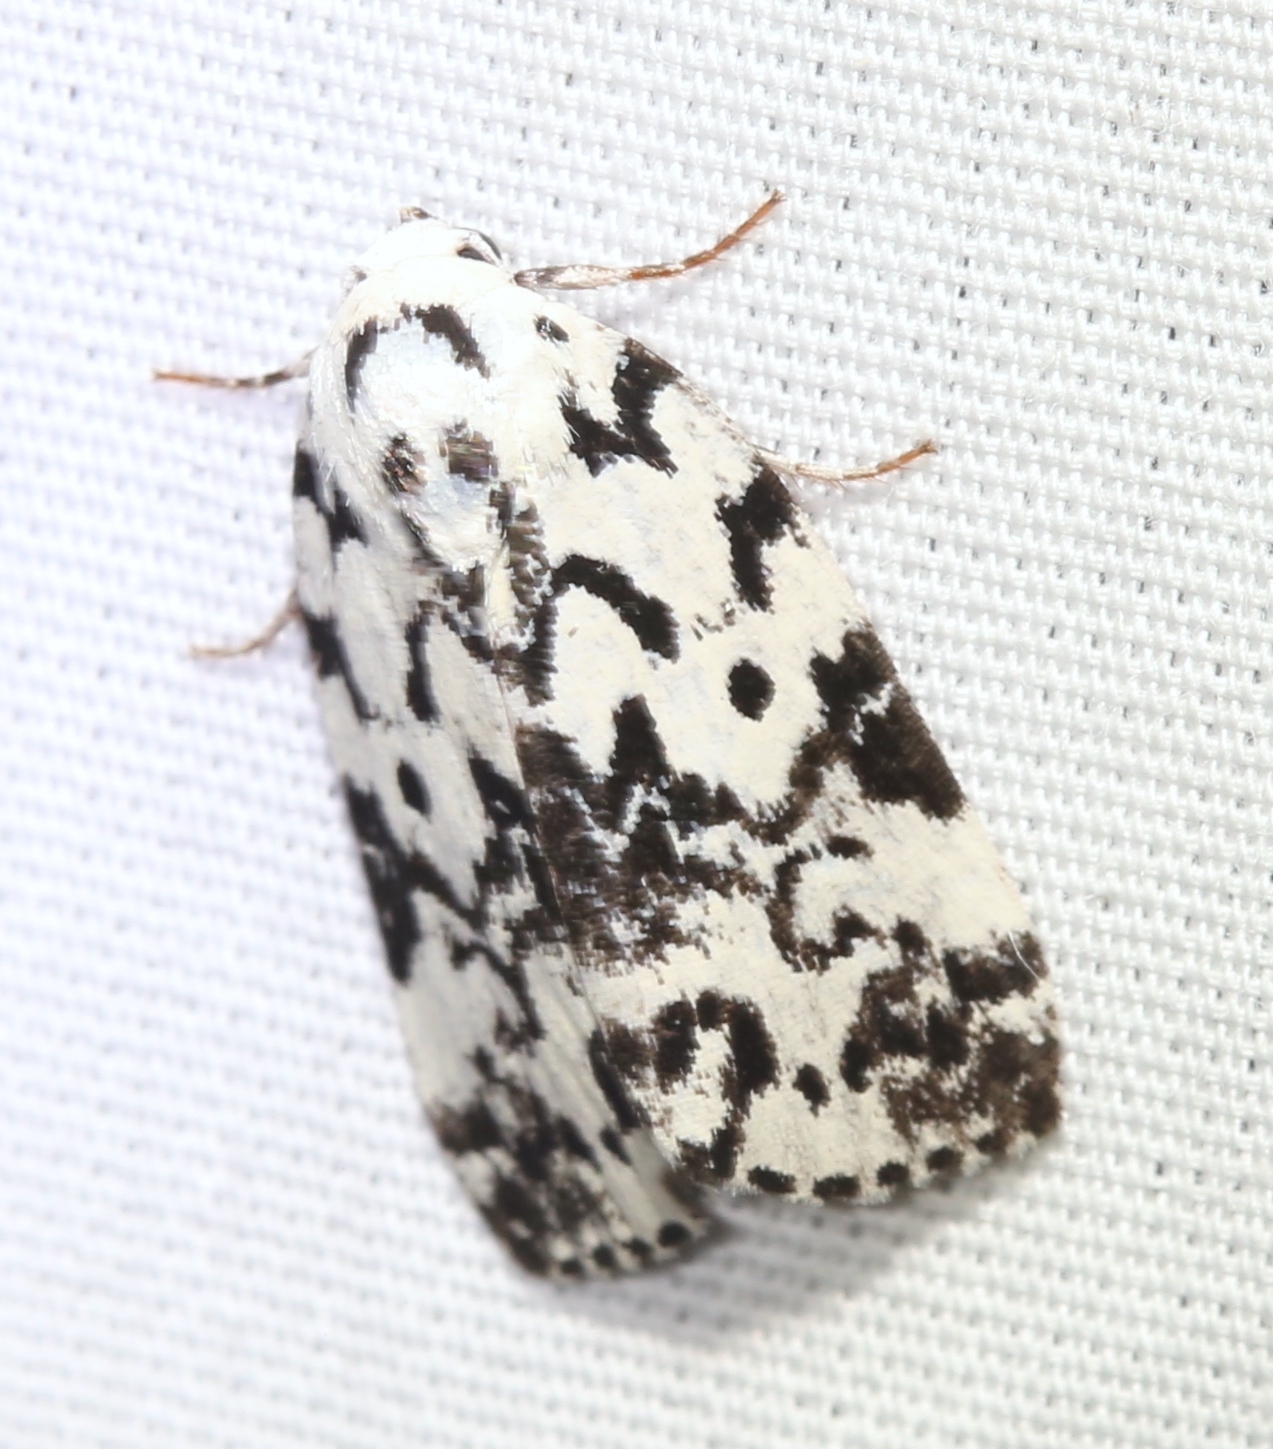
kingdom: Animalia
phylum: Arthropoda
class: Insecta
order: Lepidoptera
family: Noctuidae
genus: Polygrammate
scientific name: Polygrammate hebraeicum
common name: Hebrew moth
